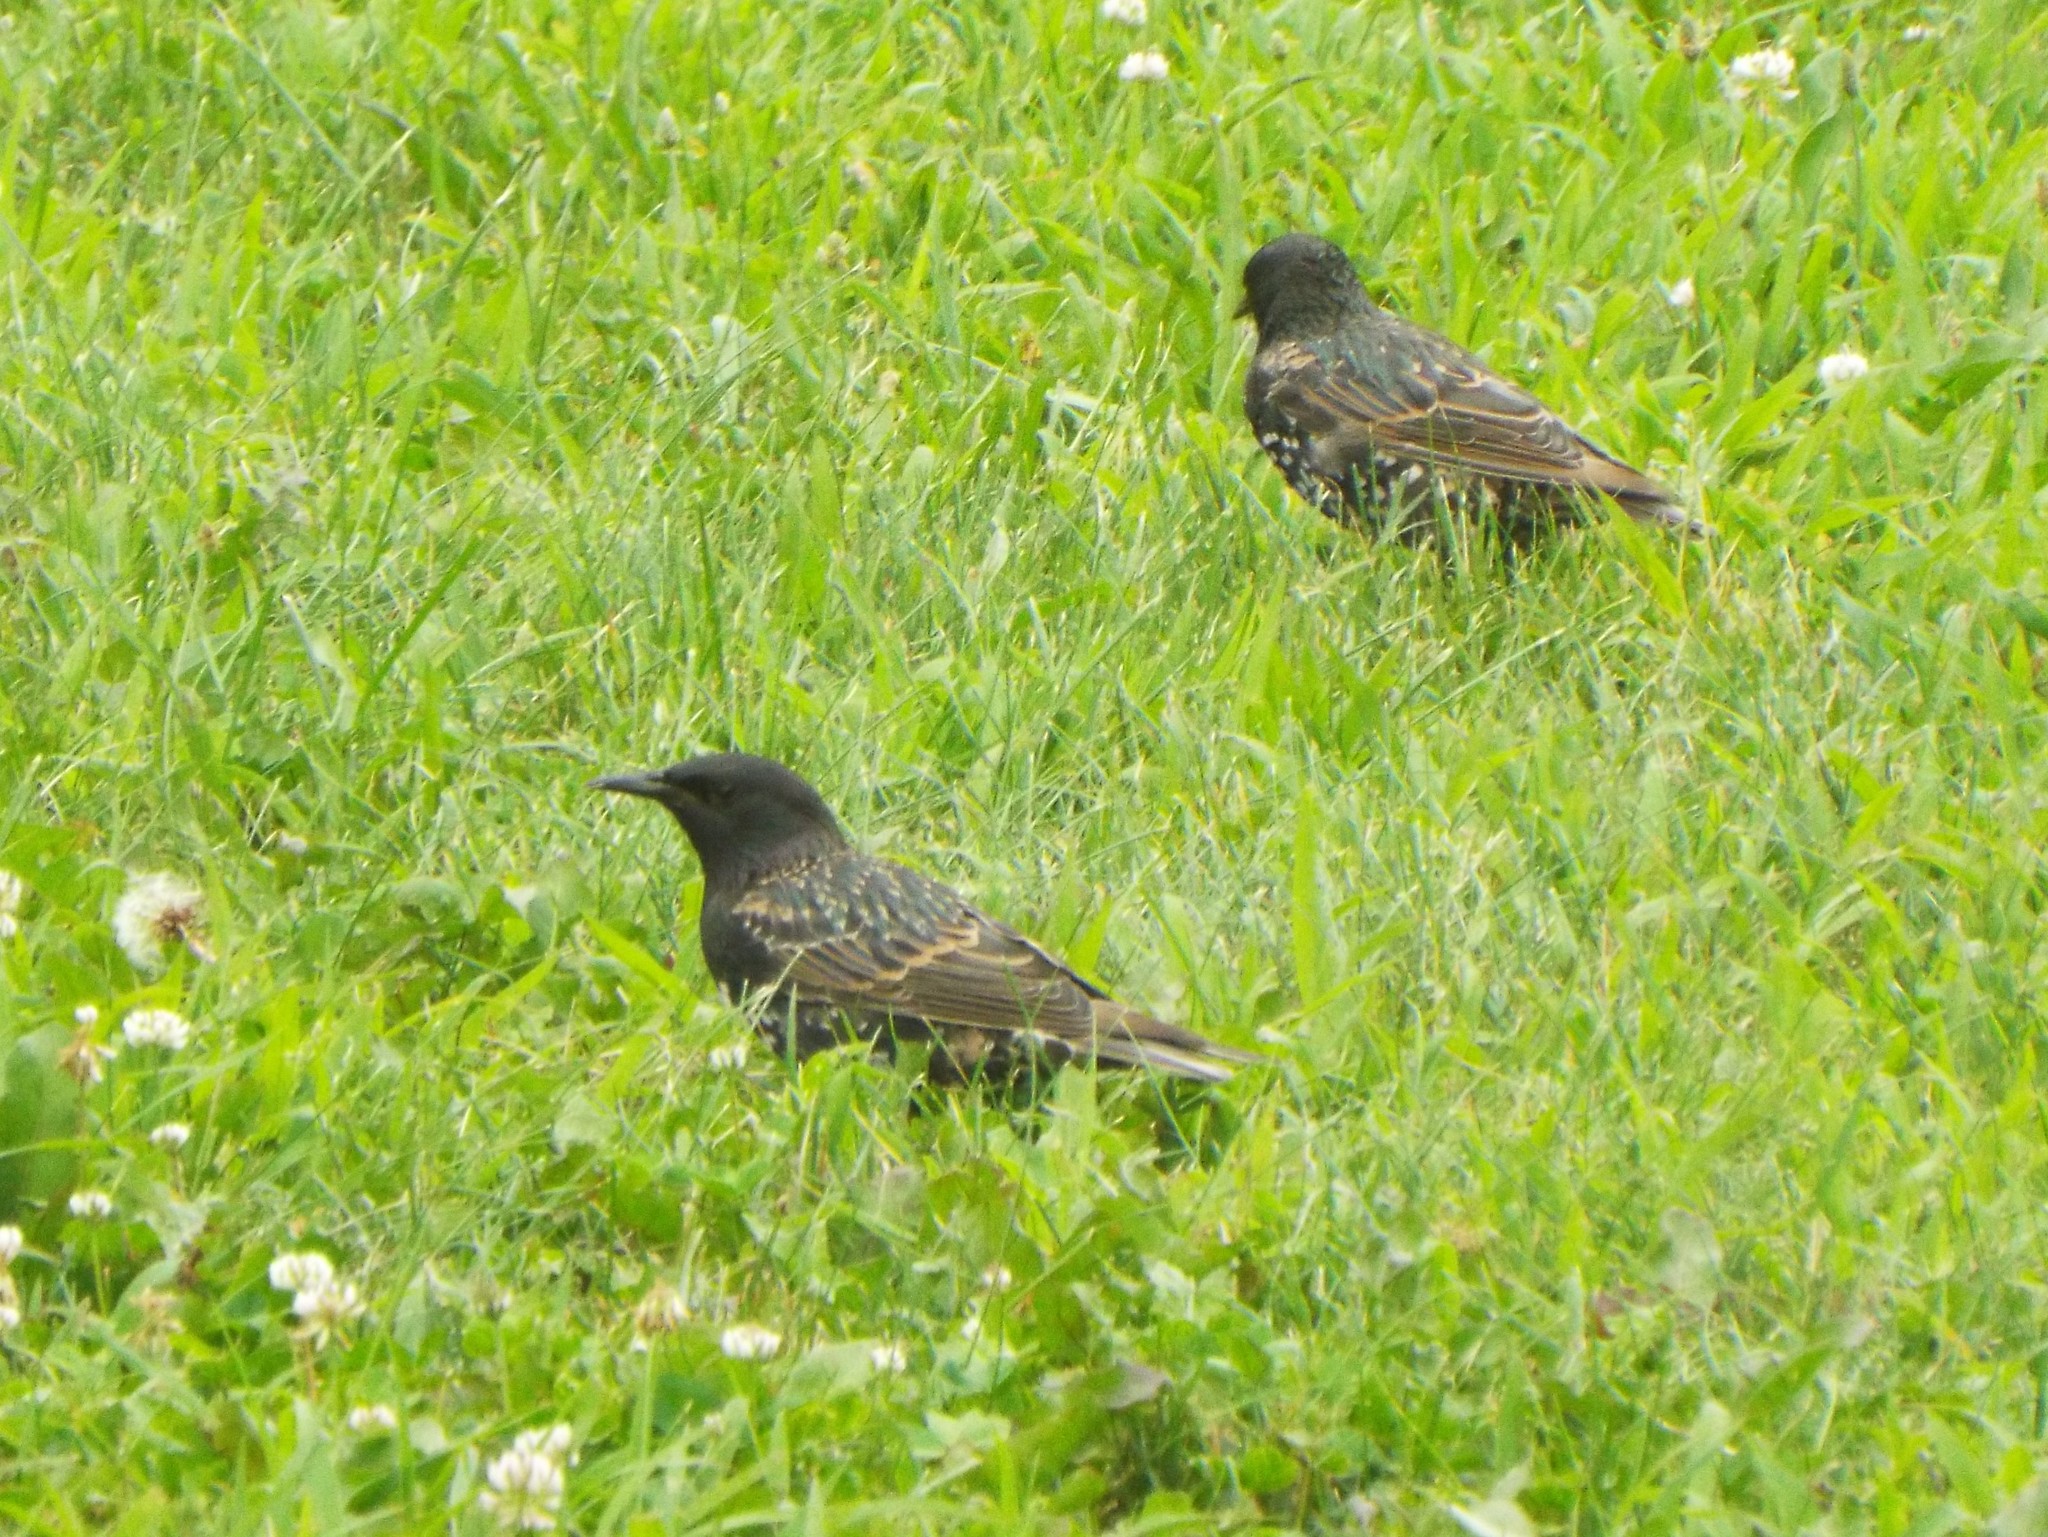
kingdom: Animalia
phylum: Chordata
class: Aves
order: Passeriformes
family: Sturnidae
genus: Sturnus
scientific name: Sturnus vulgaris
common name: Common starling
